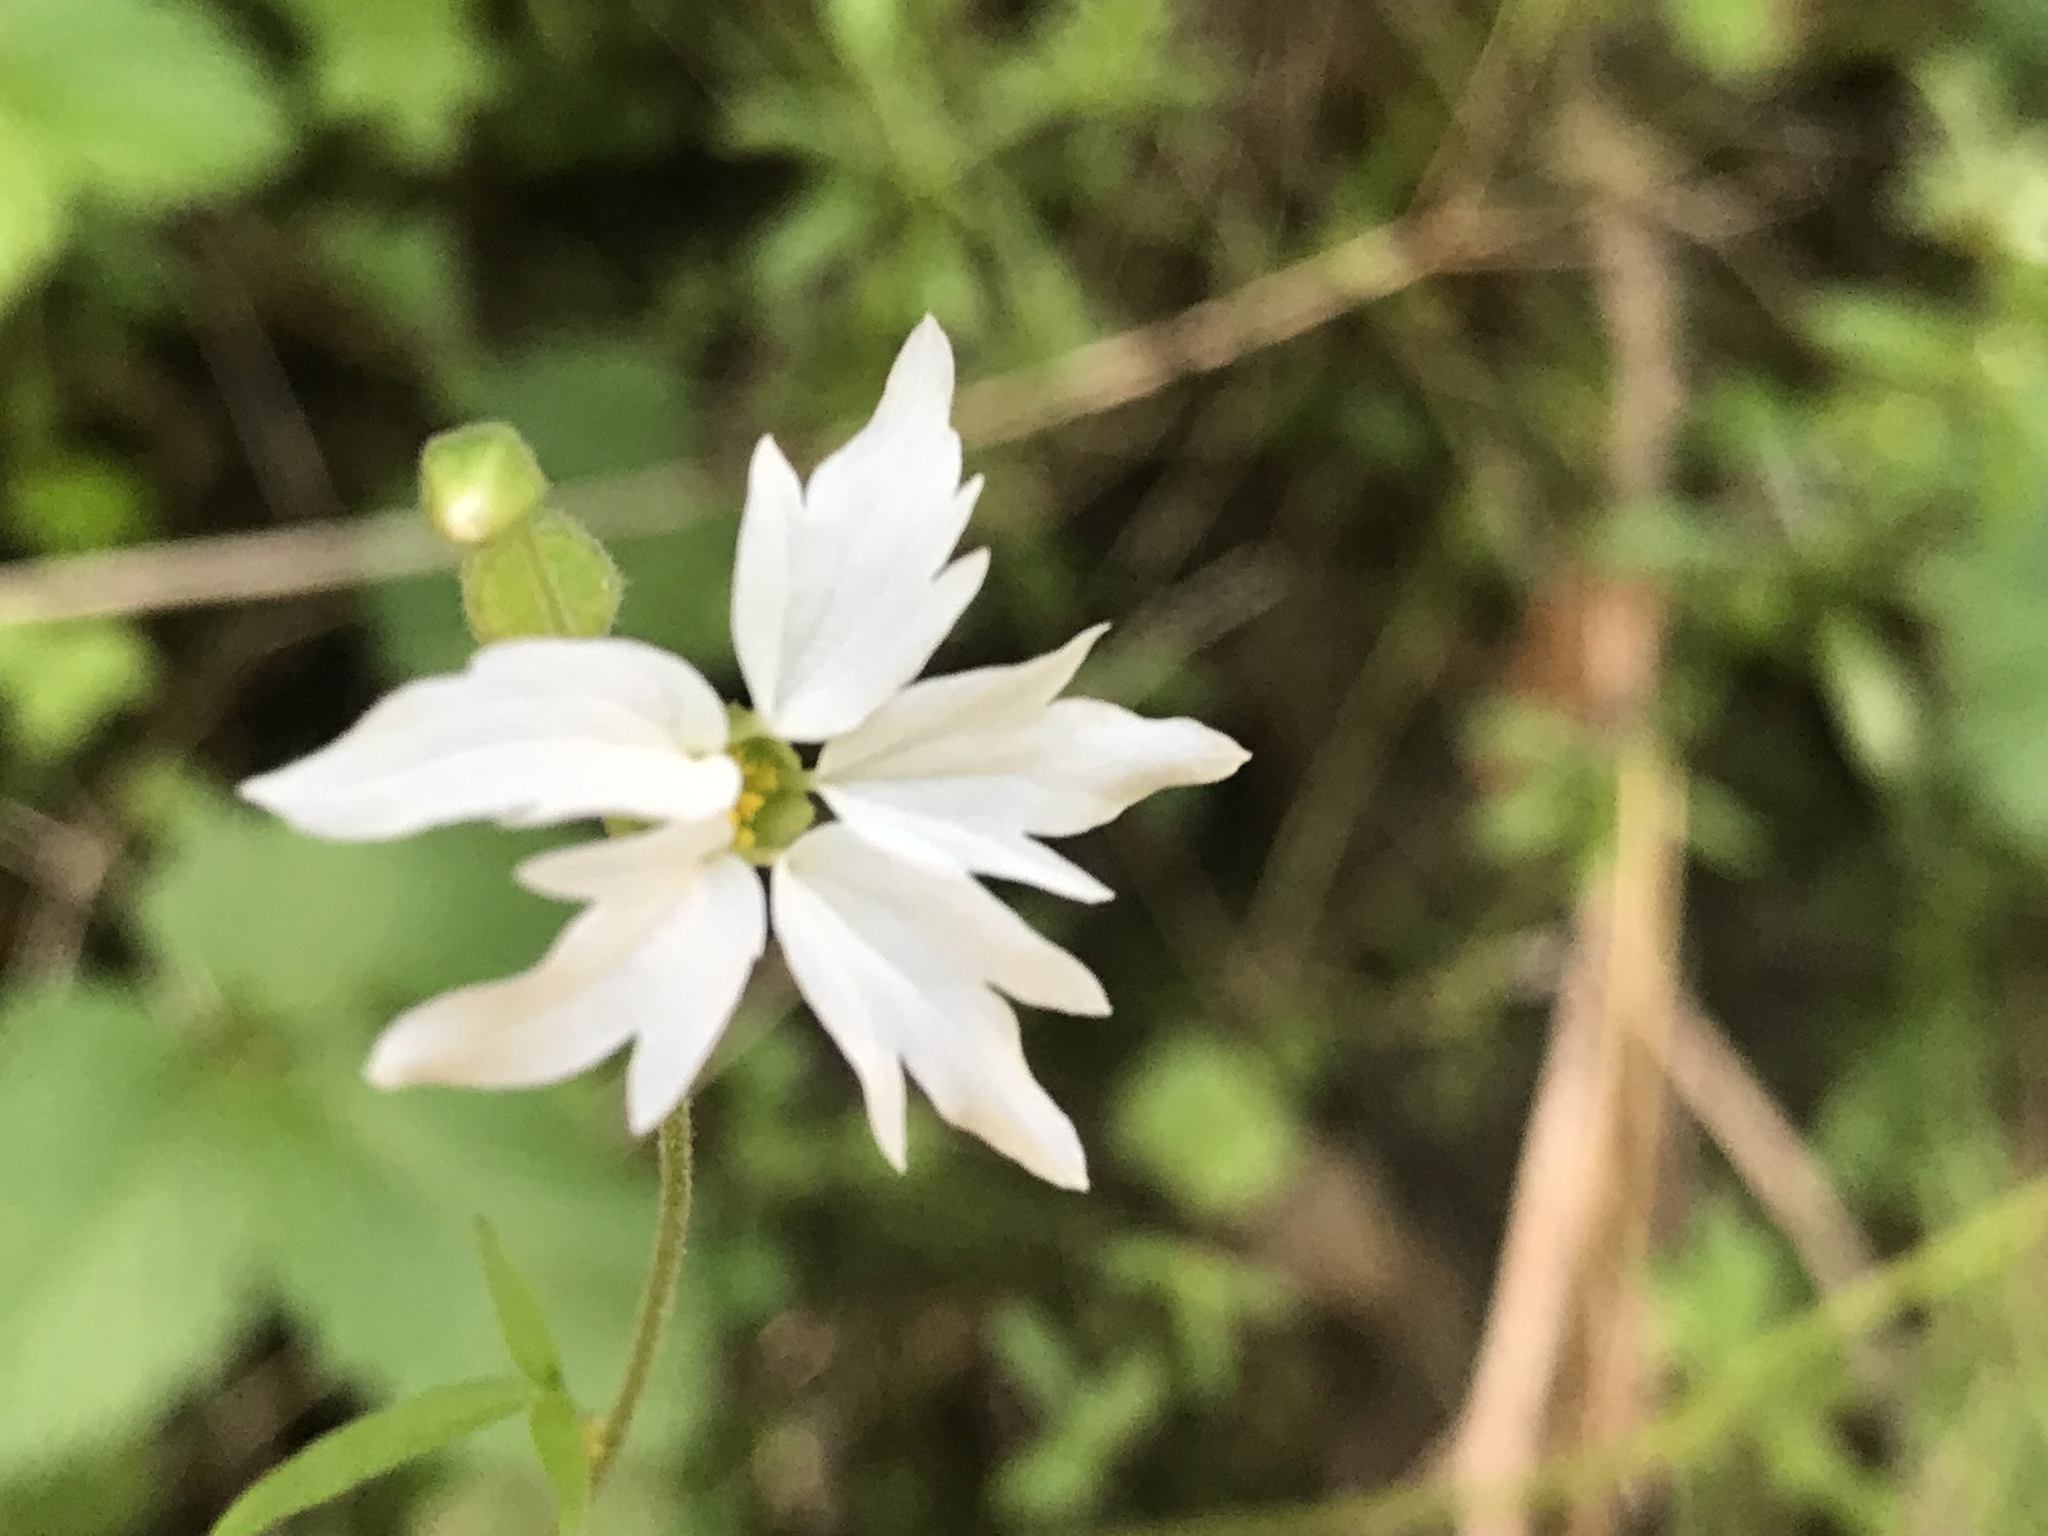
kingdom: Plantae
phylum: Tracheophyta
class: Magnoliopsida
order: Saxifragales
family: Saxifragaceae
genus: Lithophragma
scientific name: Lithophragma heterophyllum
